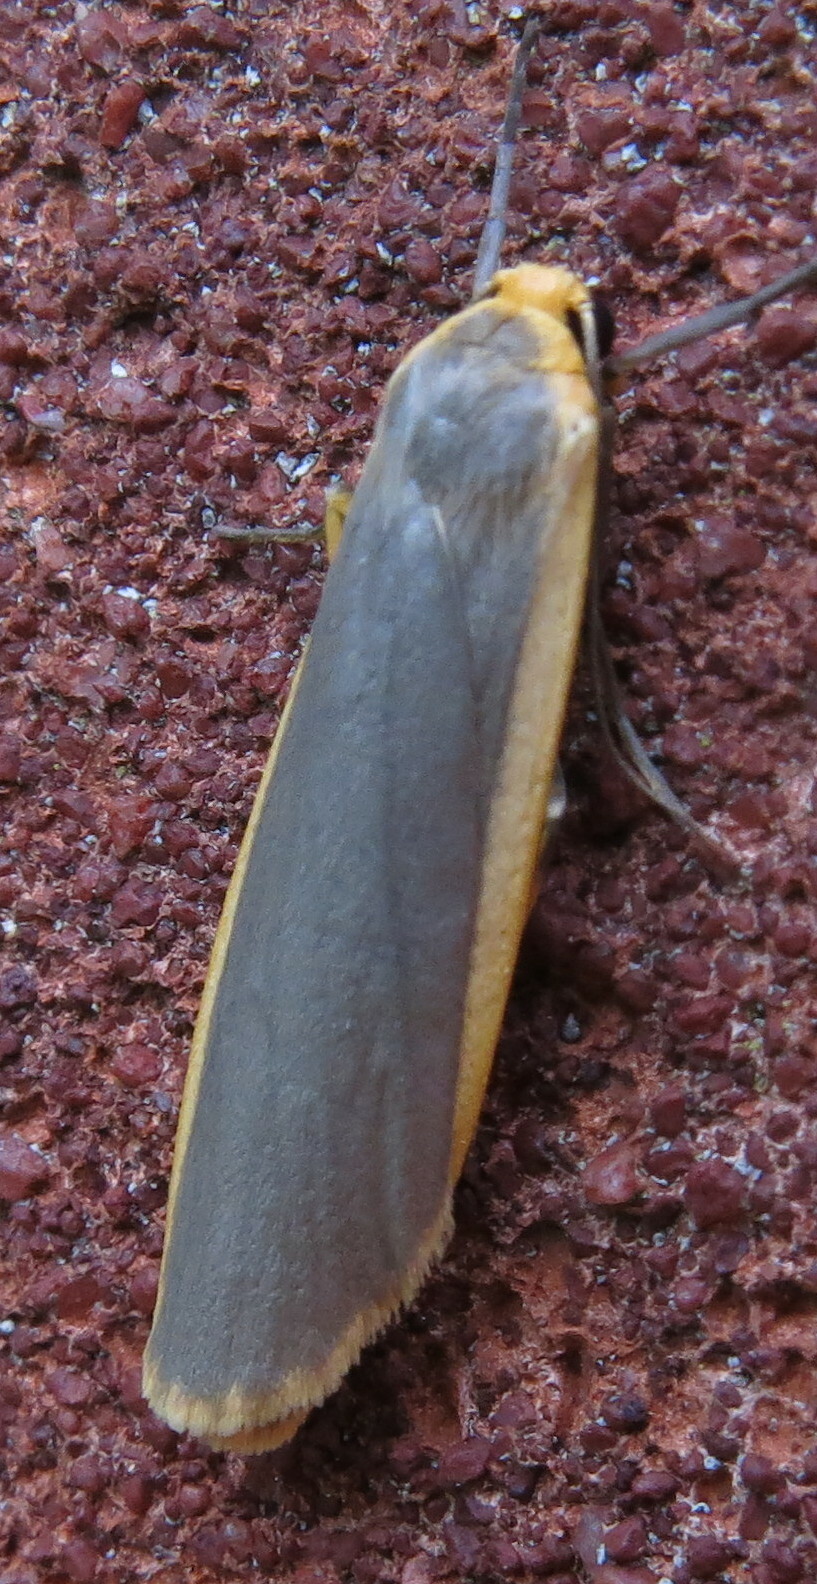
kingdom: Animalia
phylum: Arthropoda
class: Insecta
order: Lepidoptera
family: Erebidae
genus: Nyea
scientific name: Nyea lurideola
